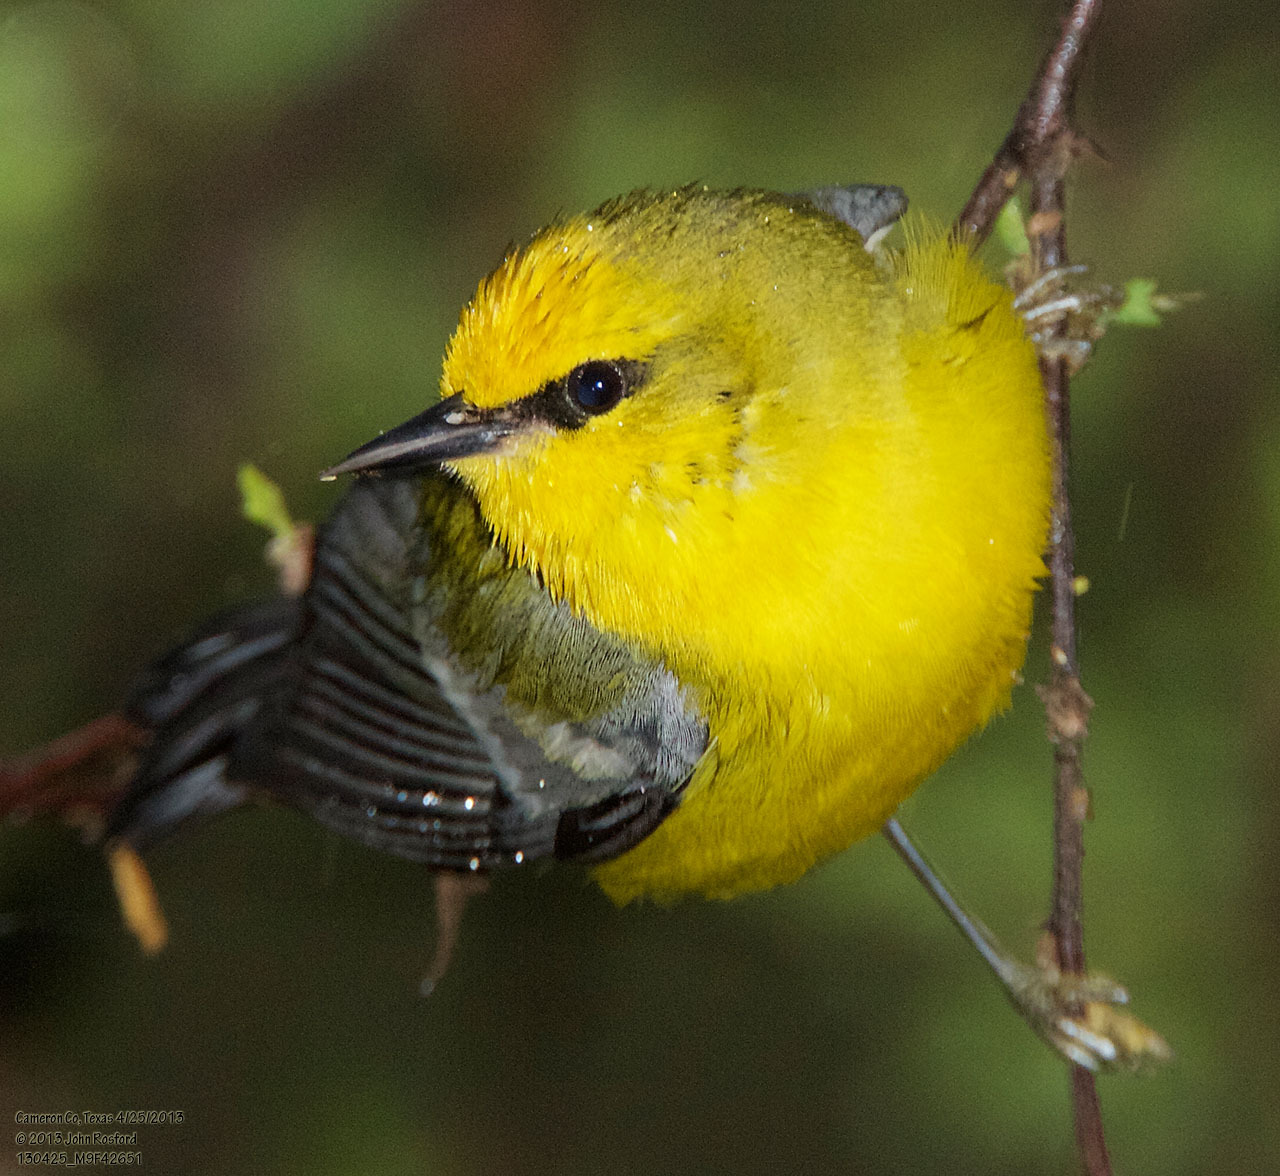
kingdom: Animalia
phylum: Chordata
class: Aves
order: Passeriformes
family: Parulidae
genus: Vermivora
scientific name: Vermivora cyanoptera
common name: Blue-winged warbler
